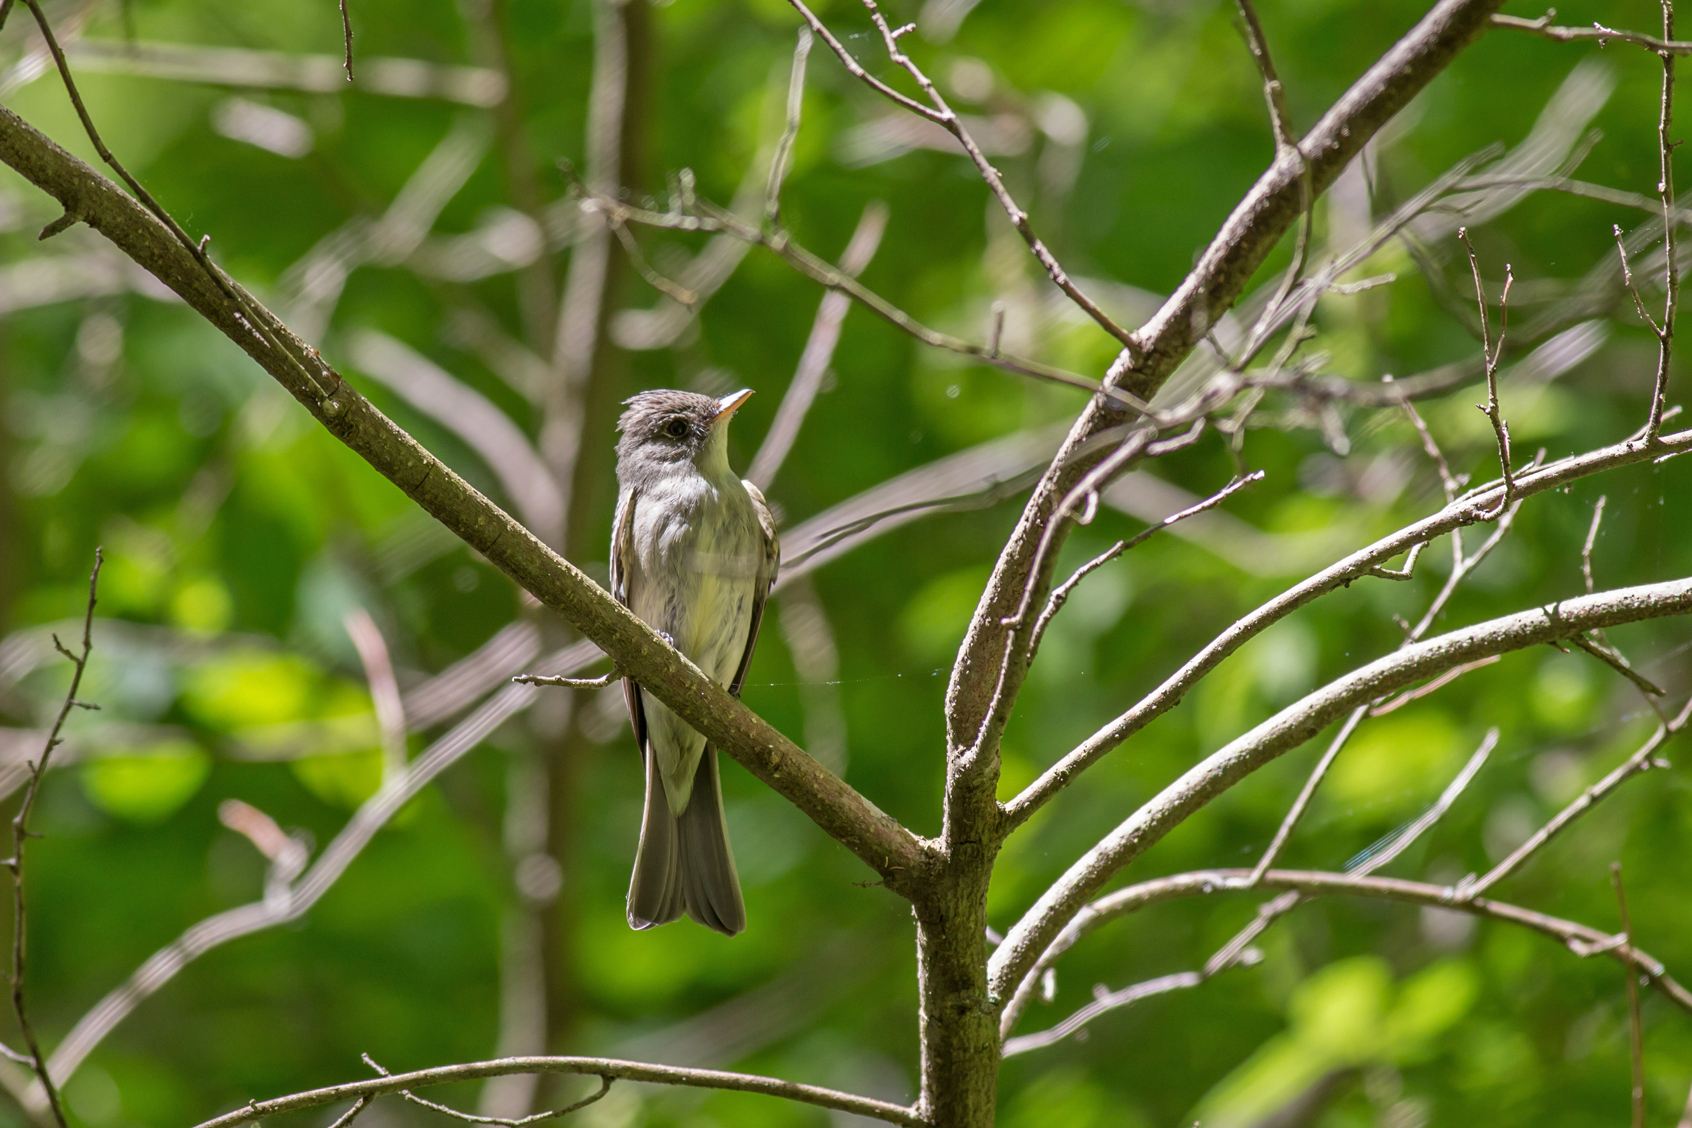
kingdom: Animalia
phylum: Chordata
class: Aves
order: Passeriformes
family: Tyrannidae
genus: Contopus
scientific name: Contopus virens
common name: Eastern wood-pewee
